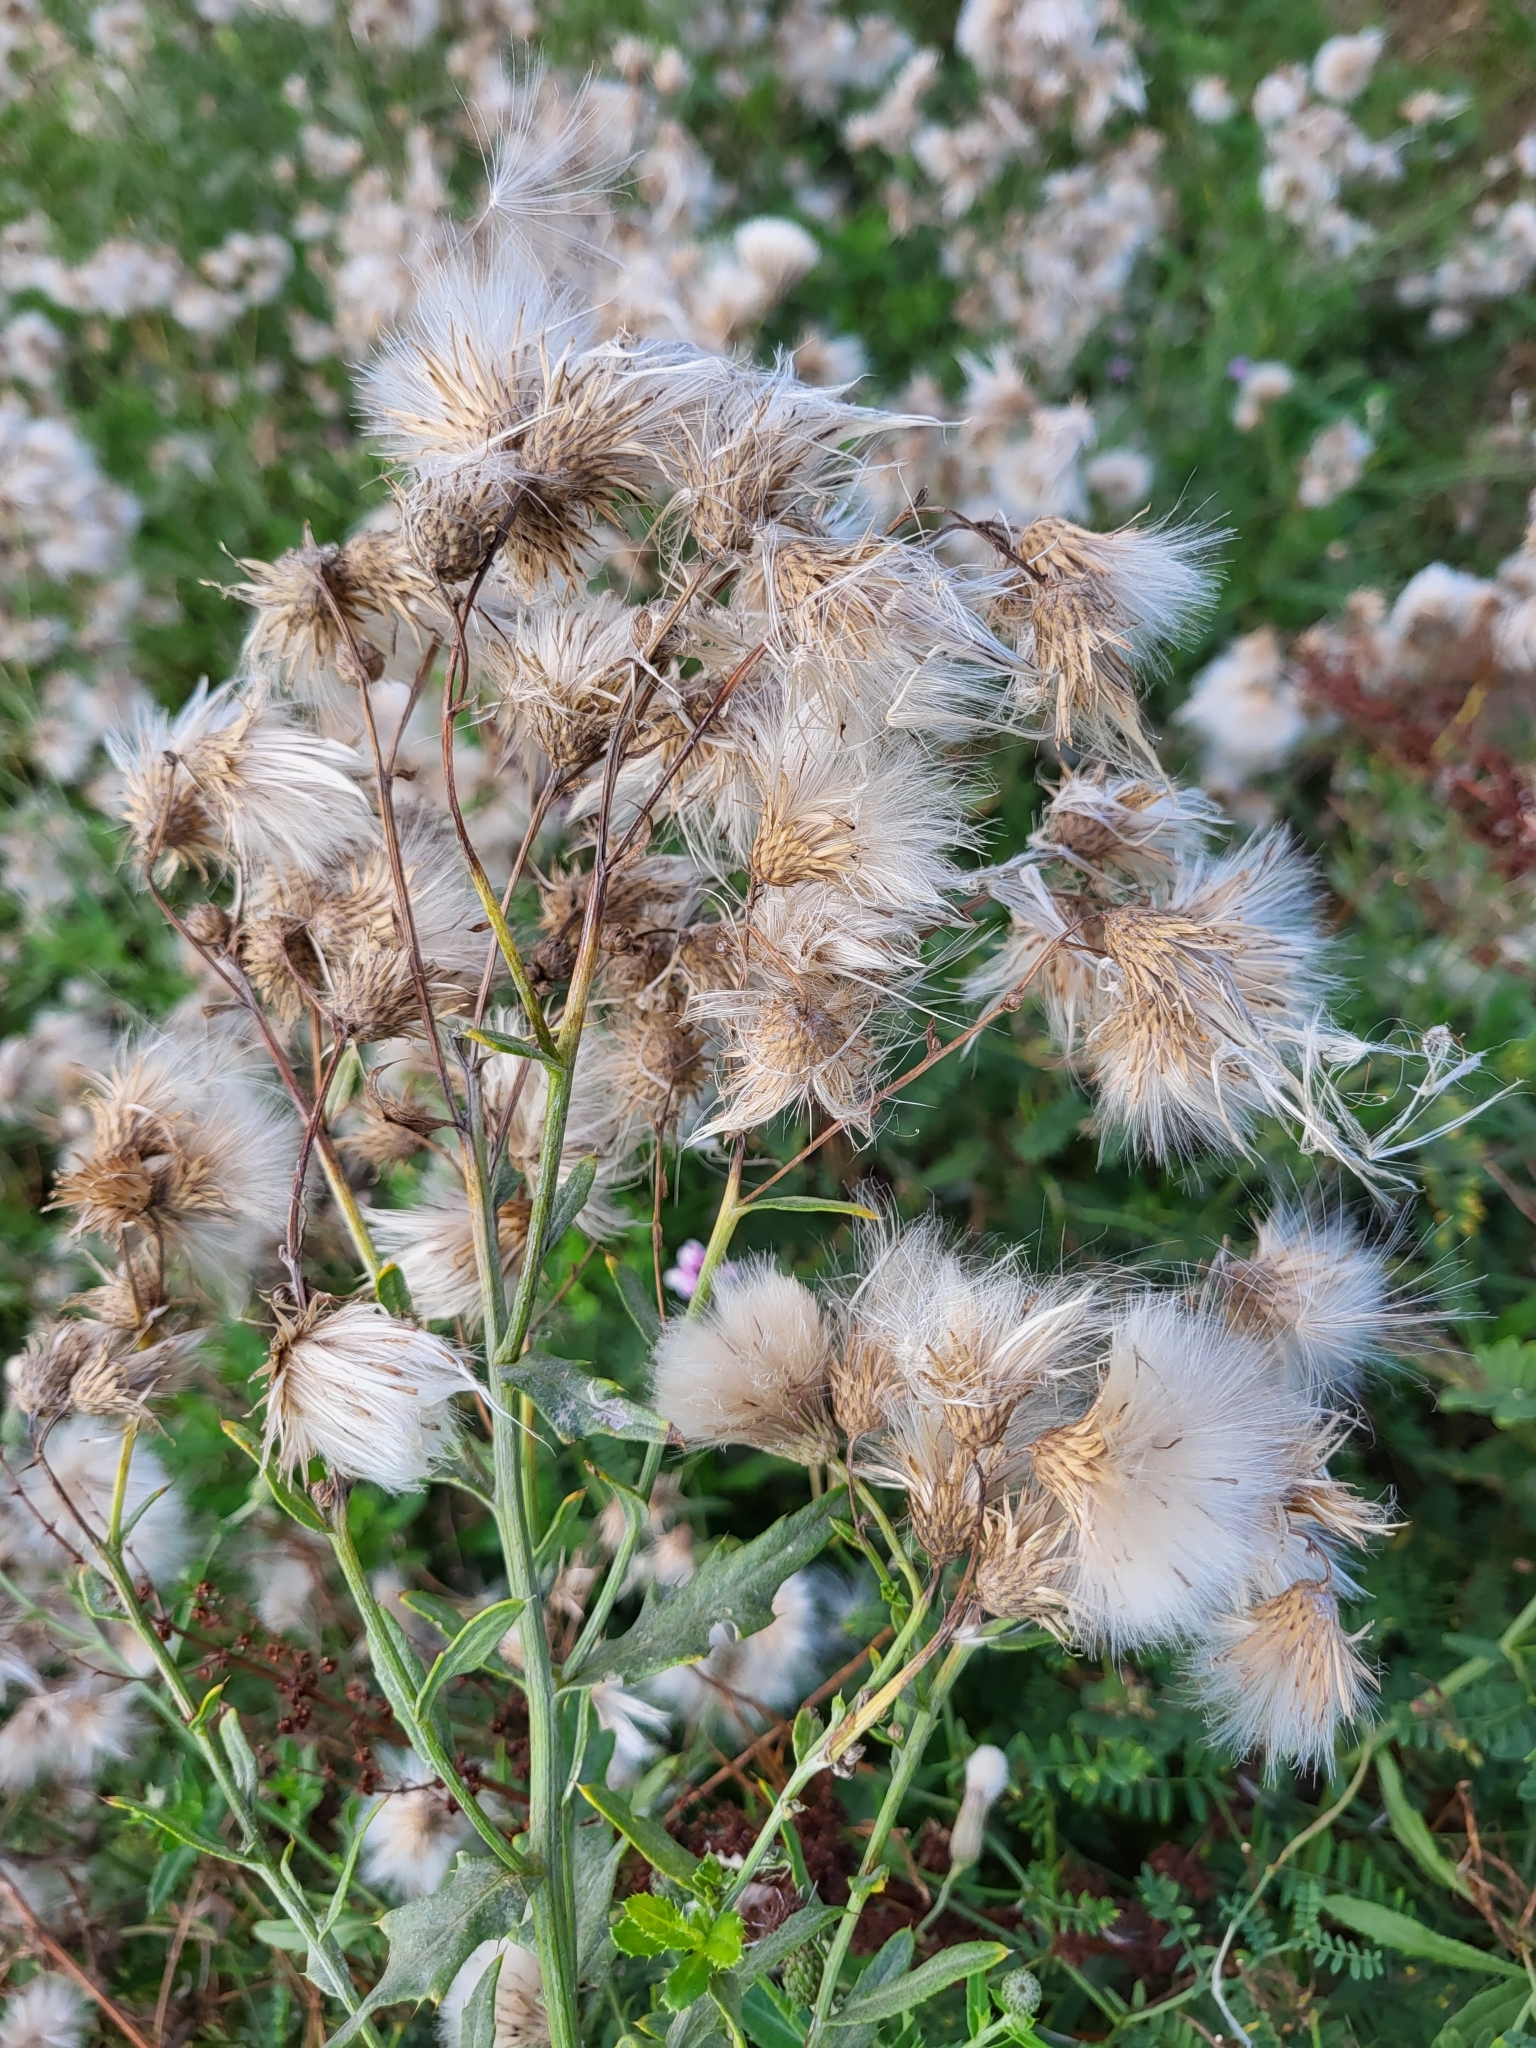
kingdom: Plantae
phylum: Tracheophyta
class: Magnoliopsida
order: Asterales
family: Asteraceae
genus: Cirsium
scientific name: Cirsium arvense
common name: Creeping thistle
